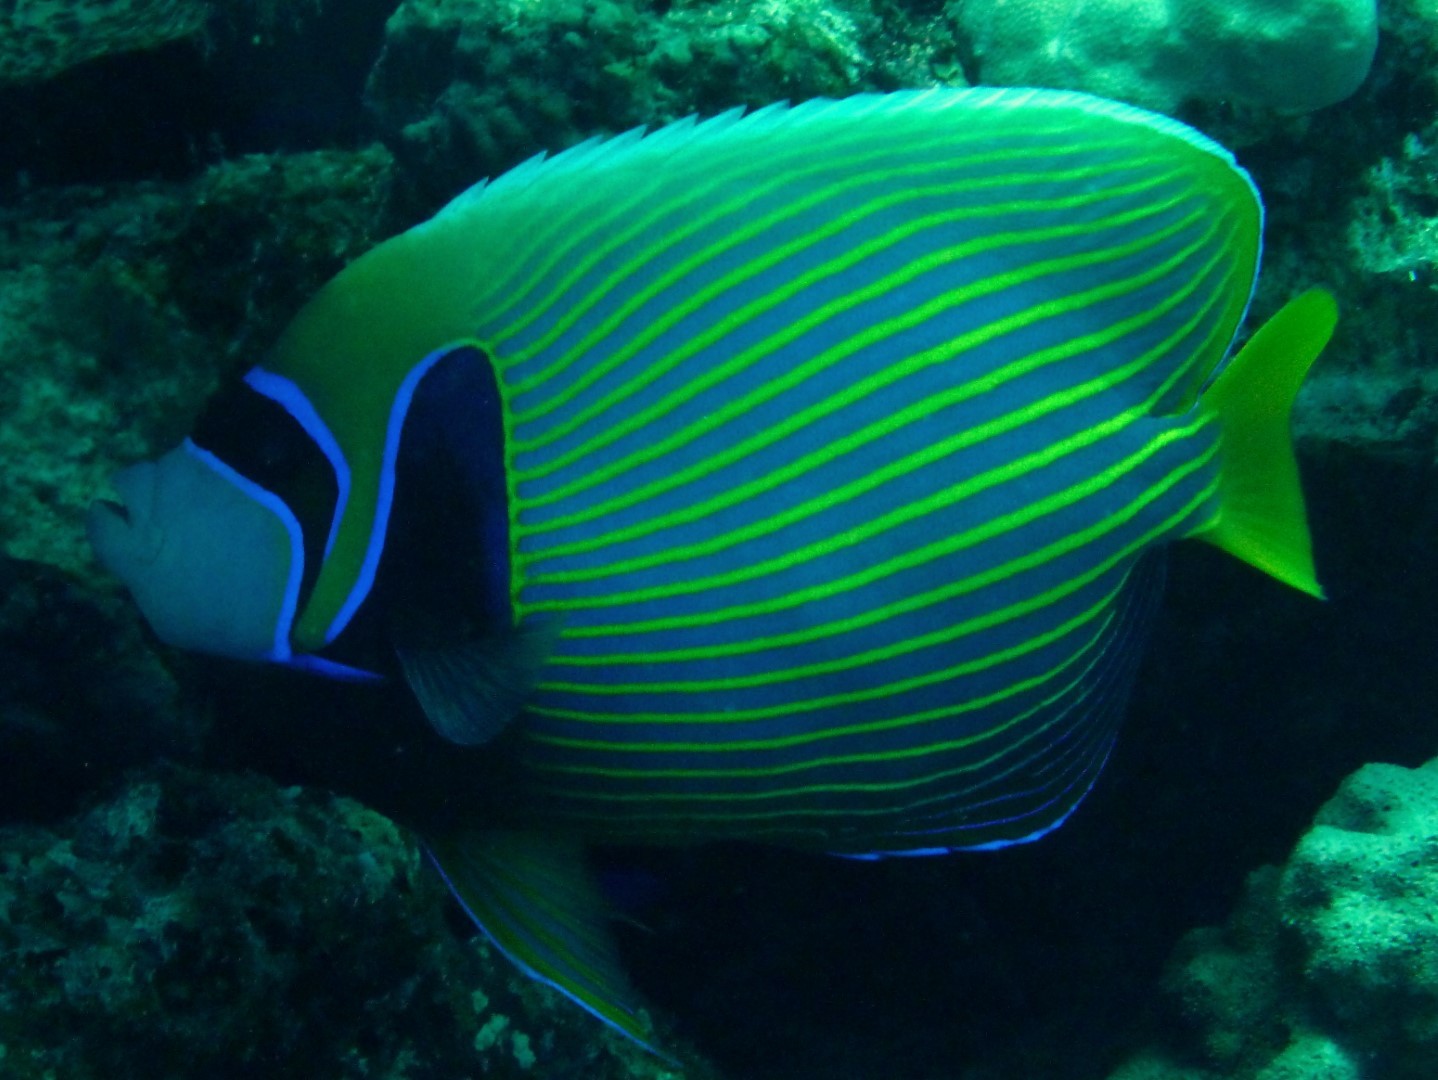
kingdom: Animalia
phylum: Chordata
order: Perciformes
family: Pomacanthidae
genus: Pomacanthus
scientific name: Pomacanthus imperator
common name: Emperor angelfish
